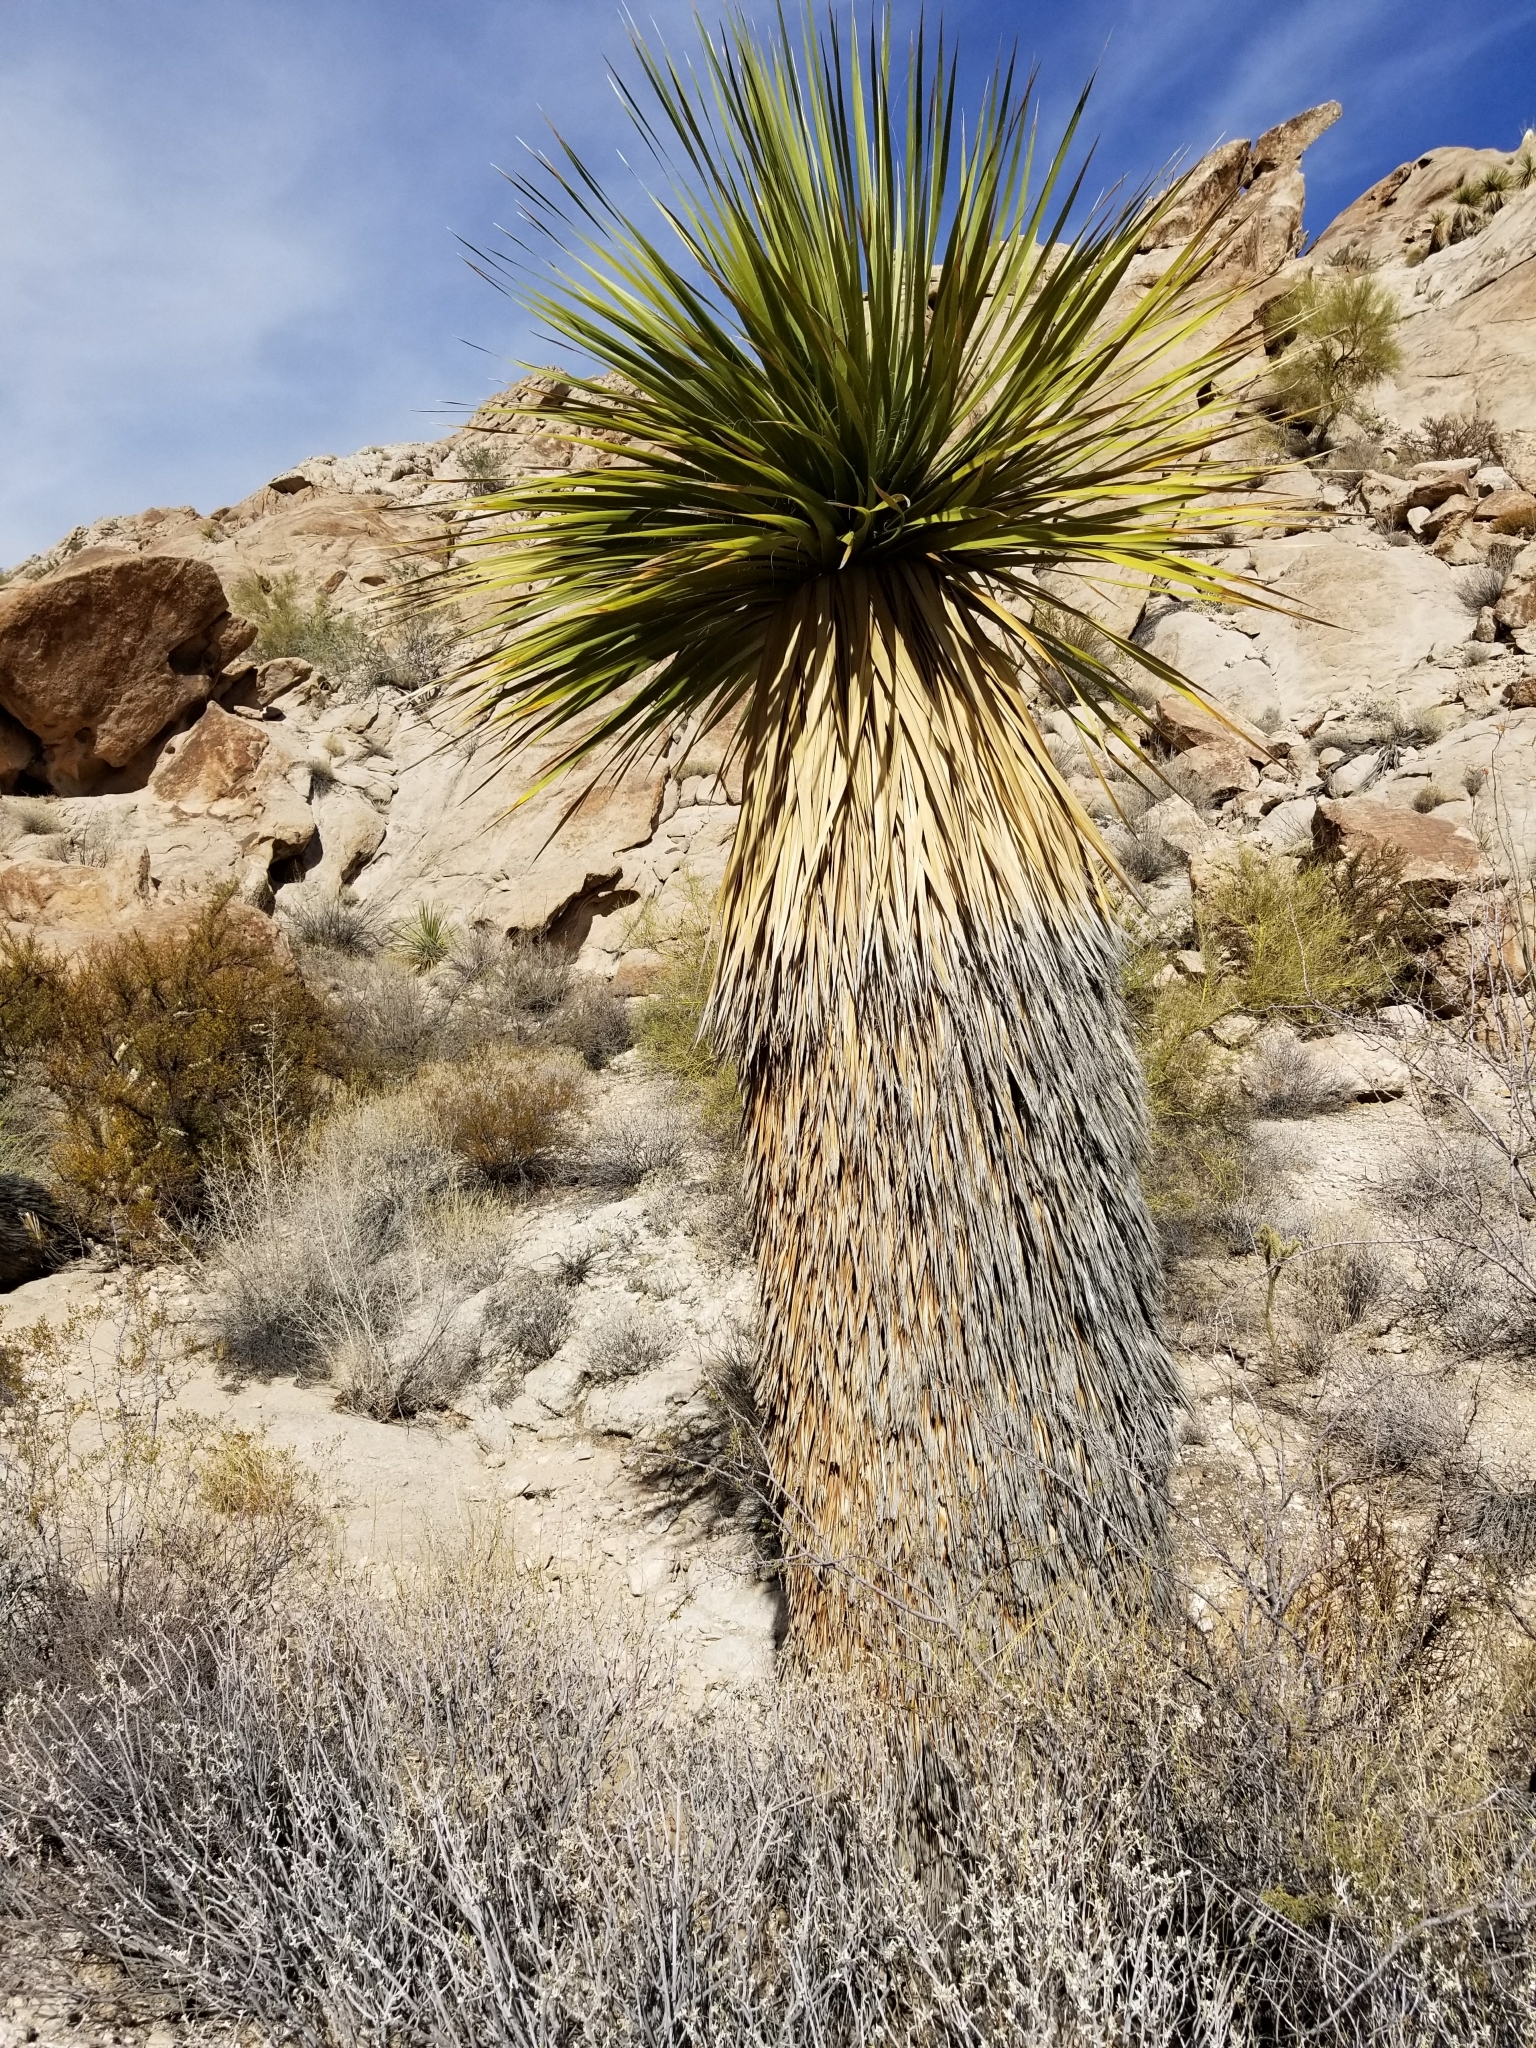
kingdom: Plantae
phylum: Tracheophyta
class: Liliopsida
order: Asparagales
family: Asparagaceae
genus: Nolina
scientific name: Nolina bigelovii
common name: Bigelow bear-grass
